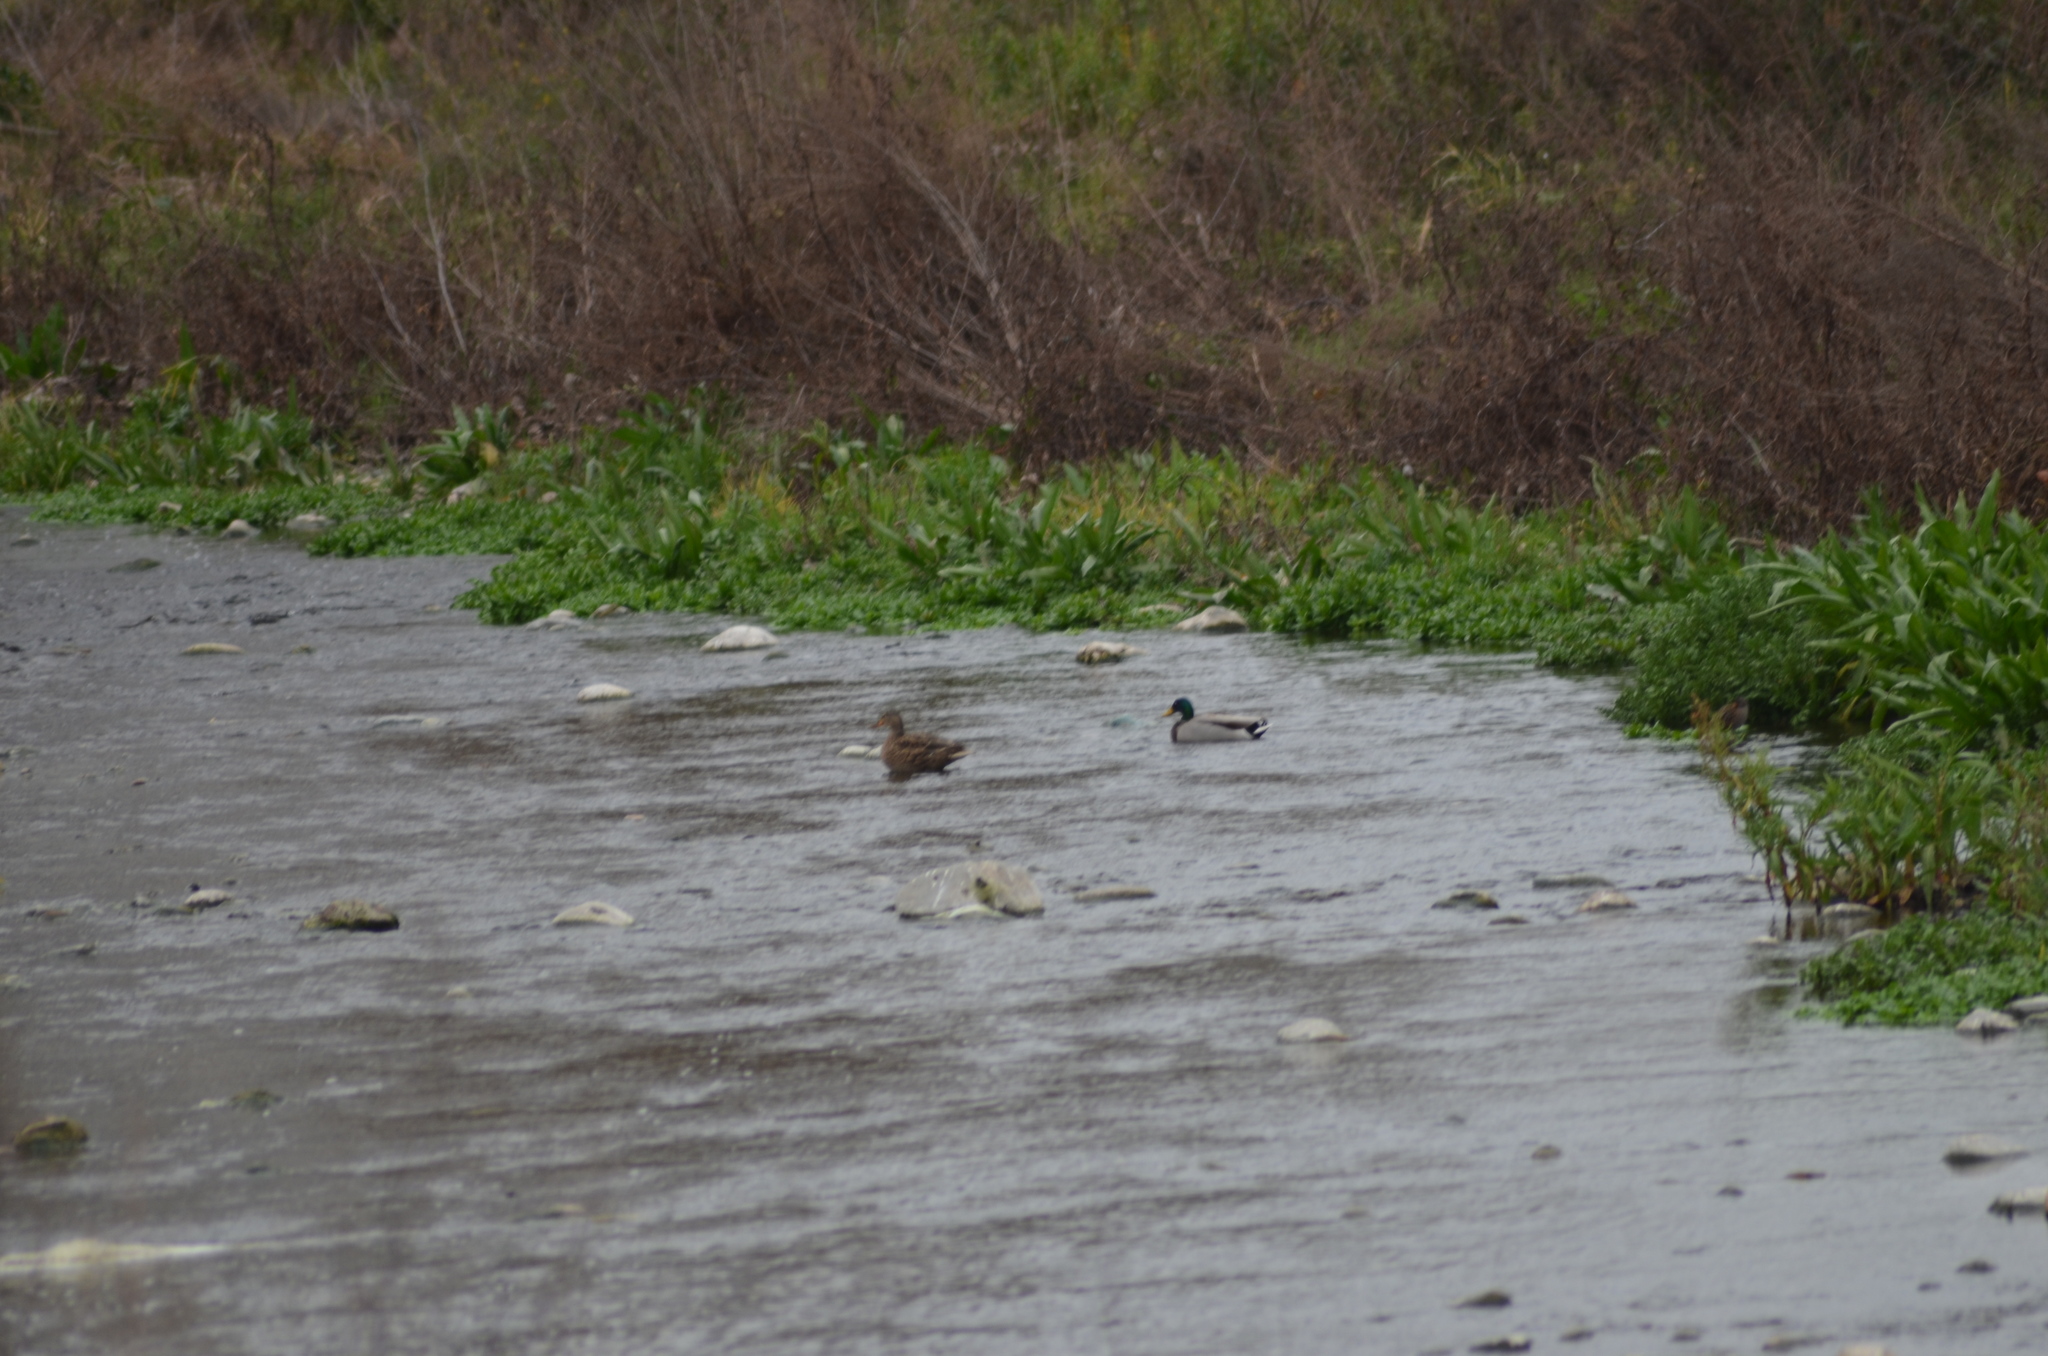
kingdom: Animalia
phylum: Chordata
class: Aves
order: Anseriformes
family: Anatidae
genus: Anas
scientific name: Anas platyrhynchos
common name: Mallard
